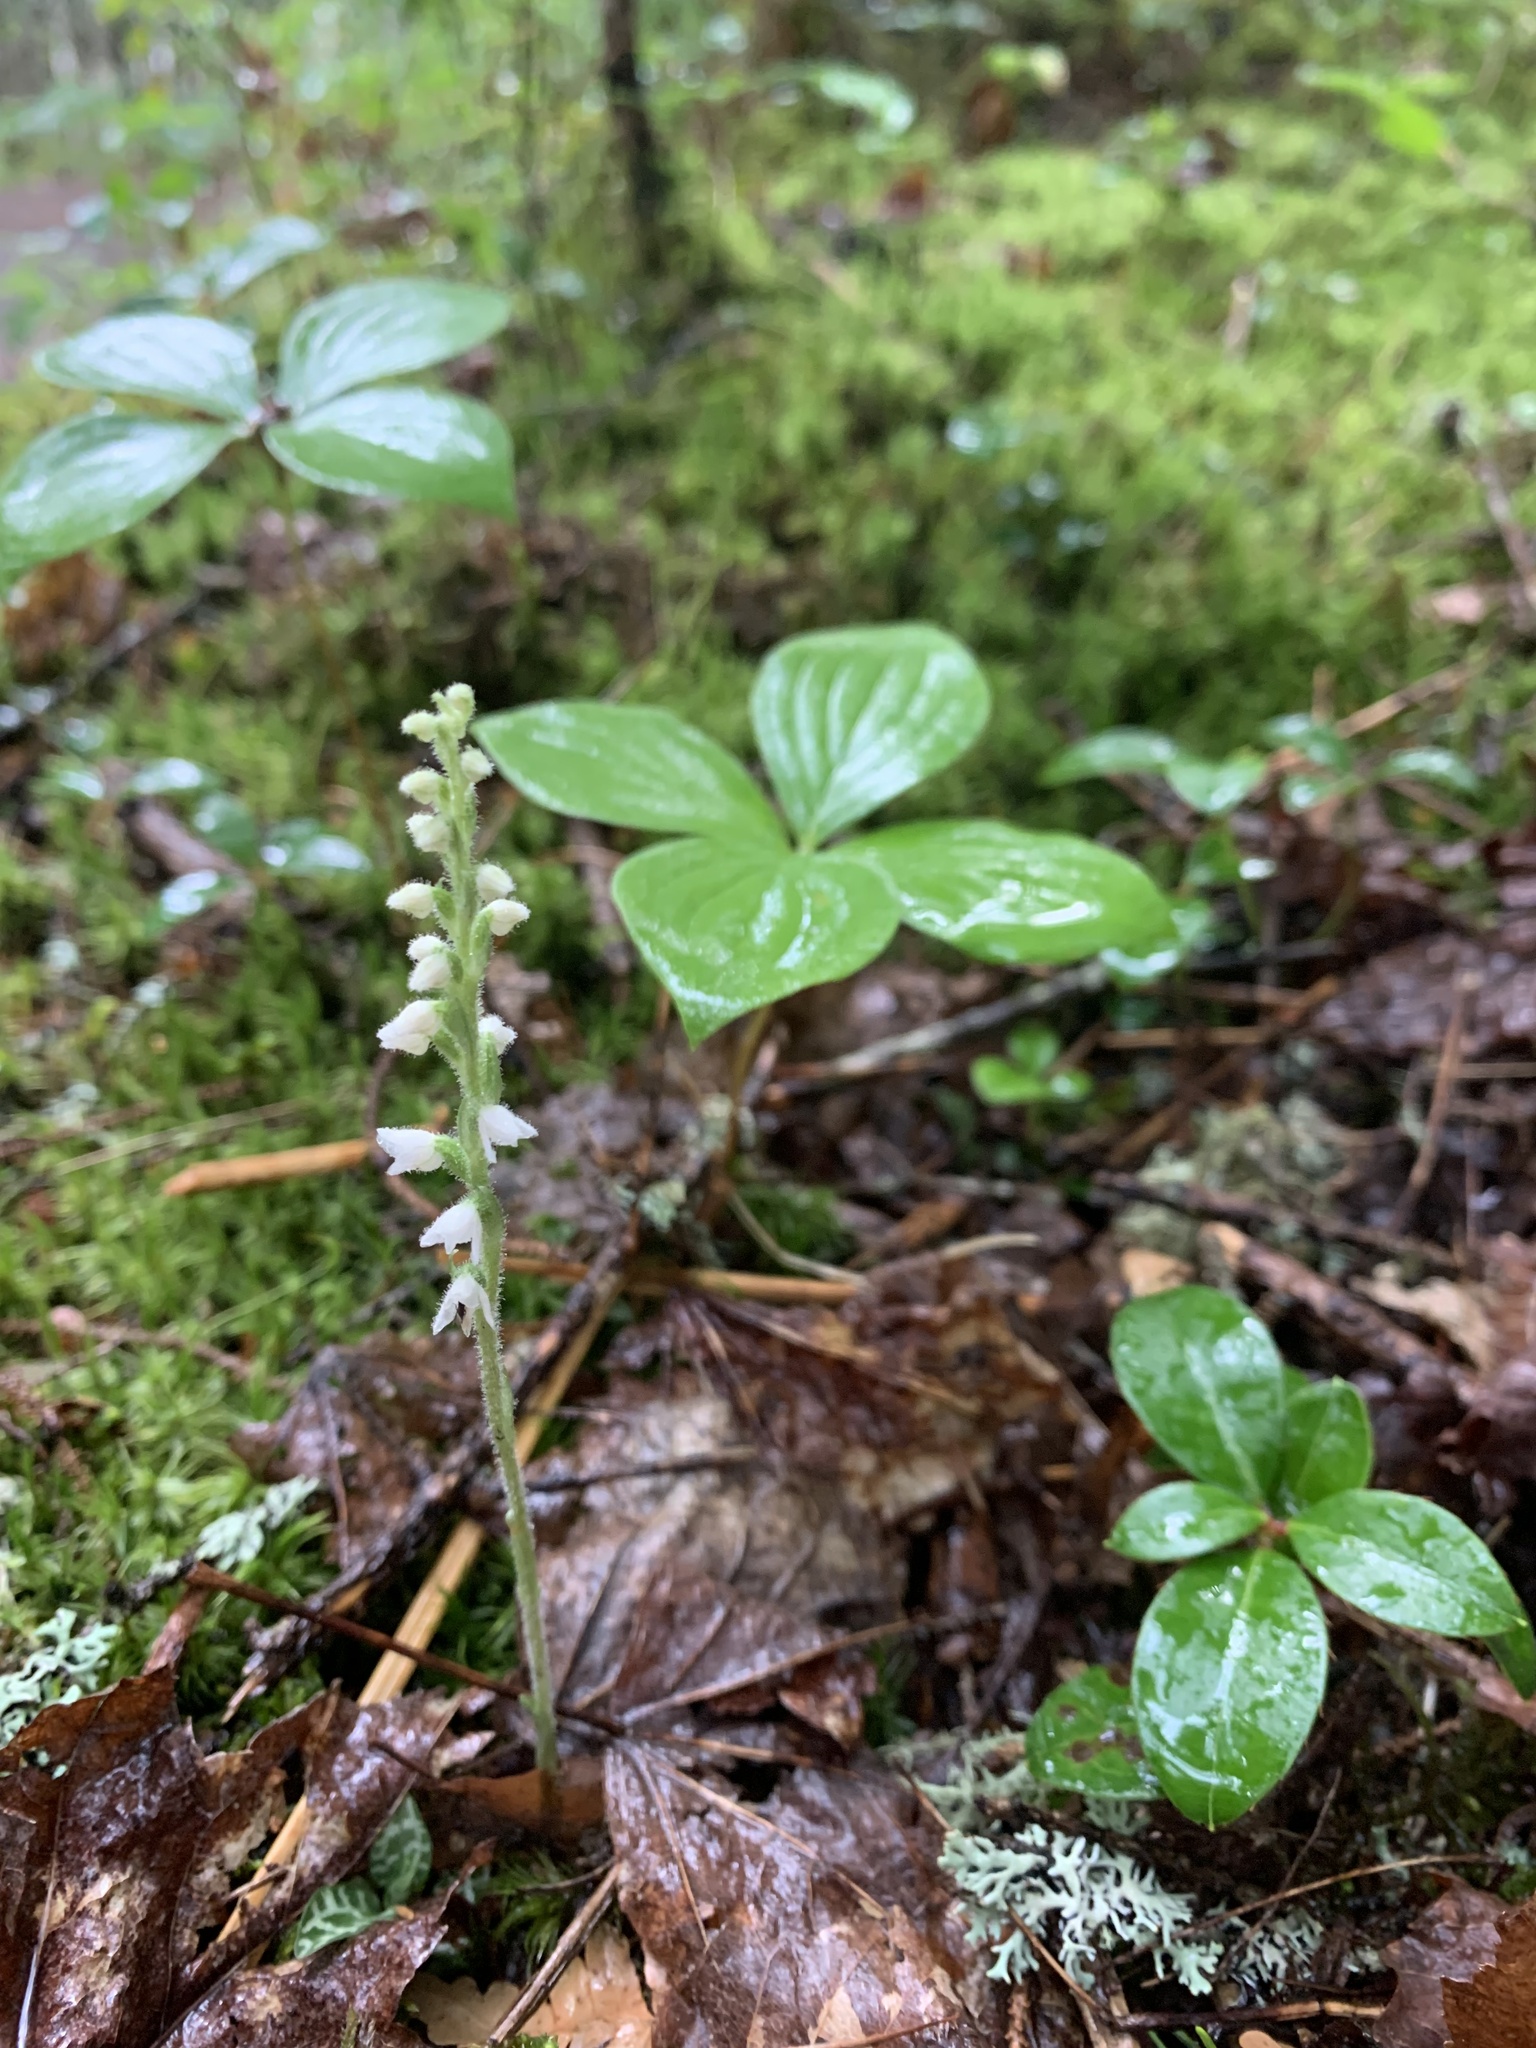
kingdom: Plantae
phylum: Tracheophyta
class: Liliopsida
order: Asparagales
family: Orchidaceae
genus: Goodyera
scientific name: Goodyera repens
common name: Creeping lady's-tresses
